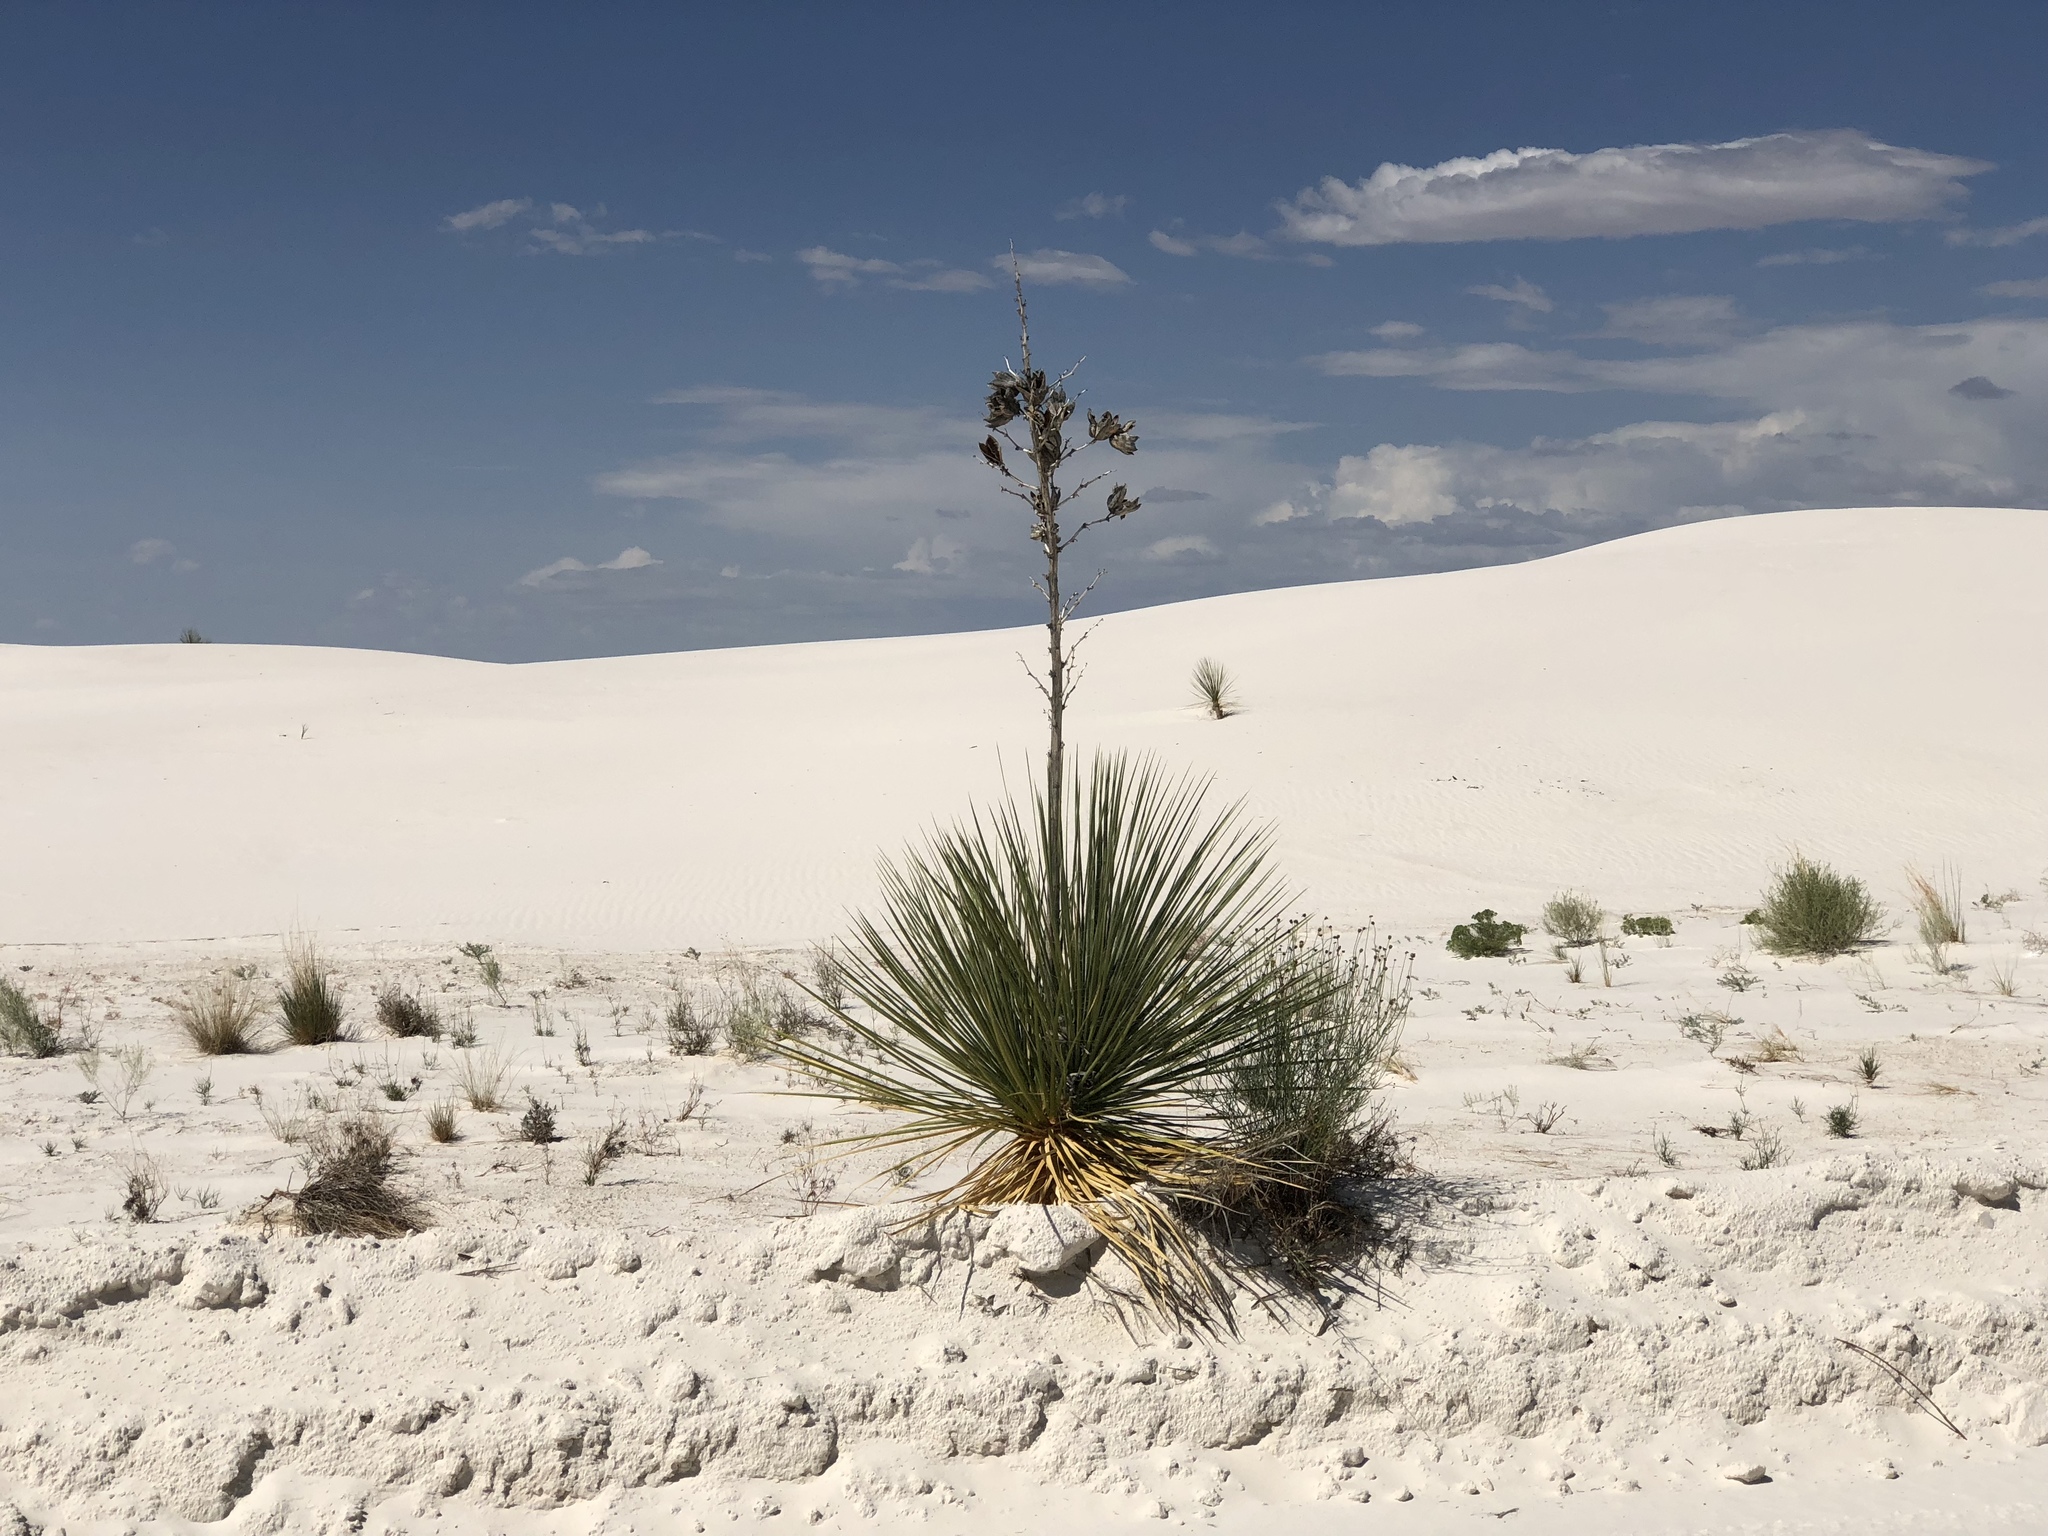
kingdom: Plantae
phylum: Tracheophyta
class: Liliopsida
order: Asparagales
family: Asparagaceae
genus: Yucca
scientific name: Yucca elata
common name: Palmella
